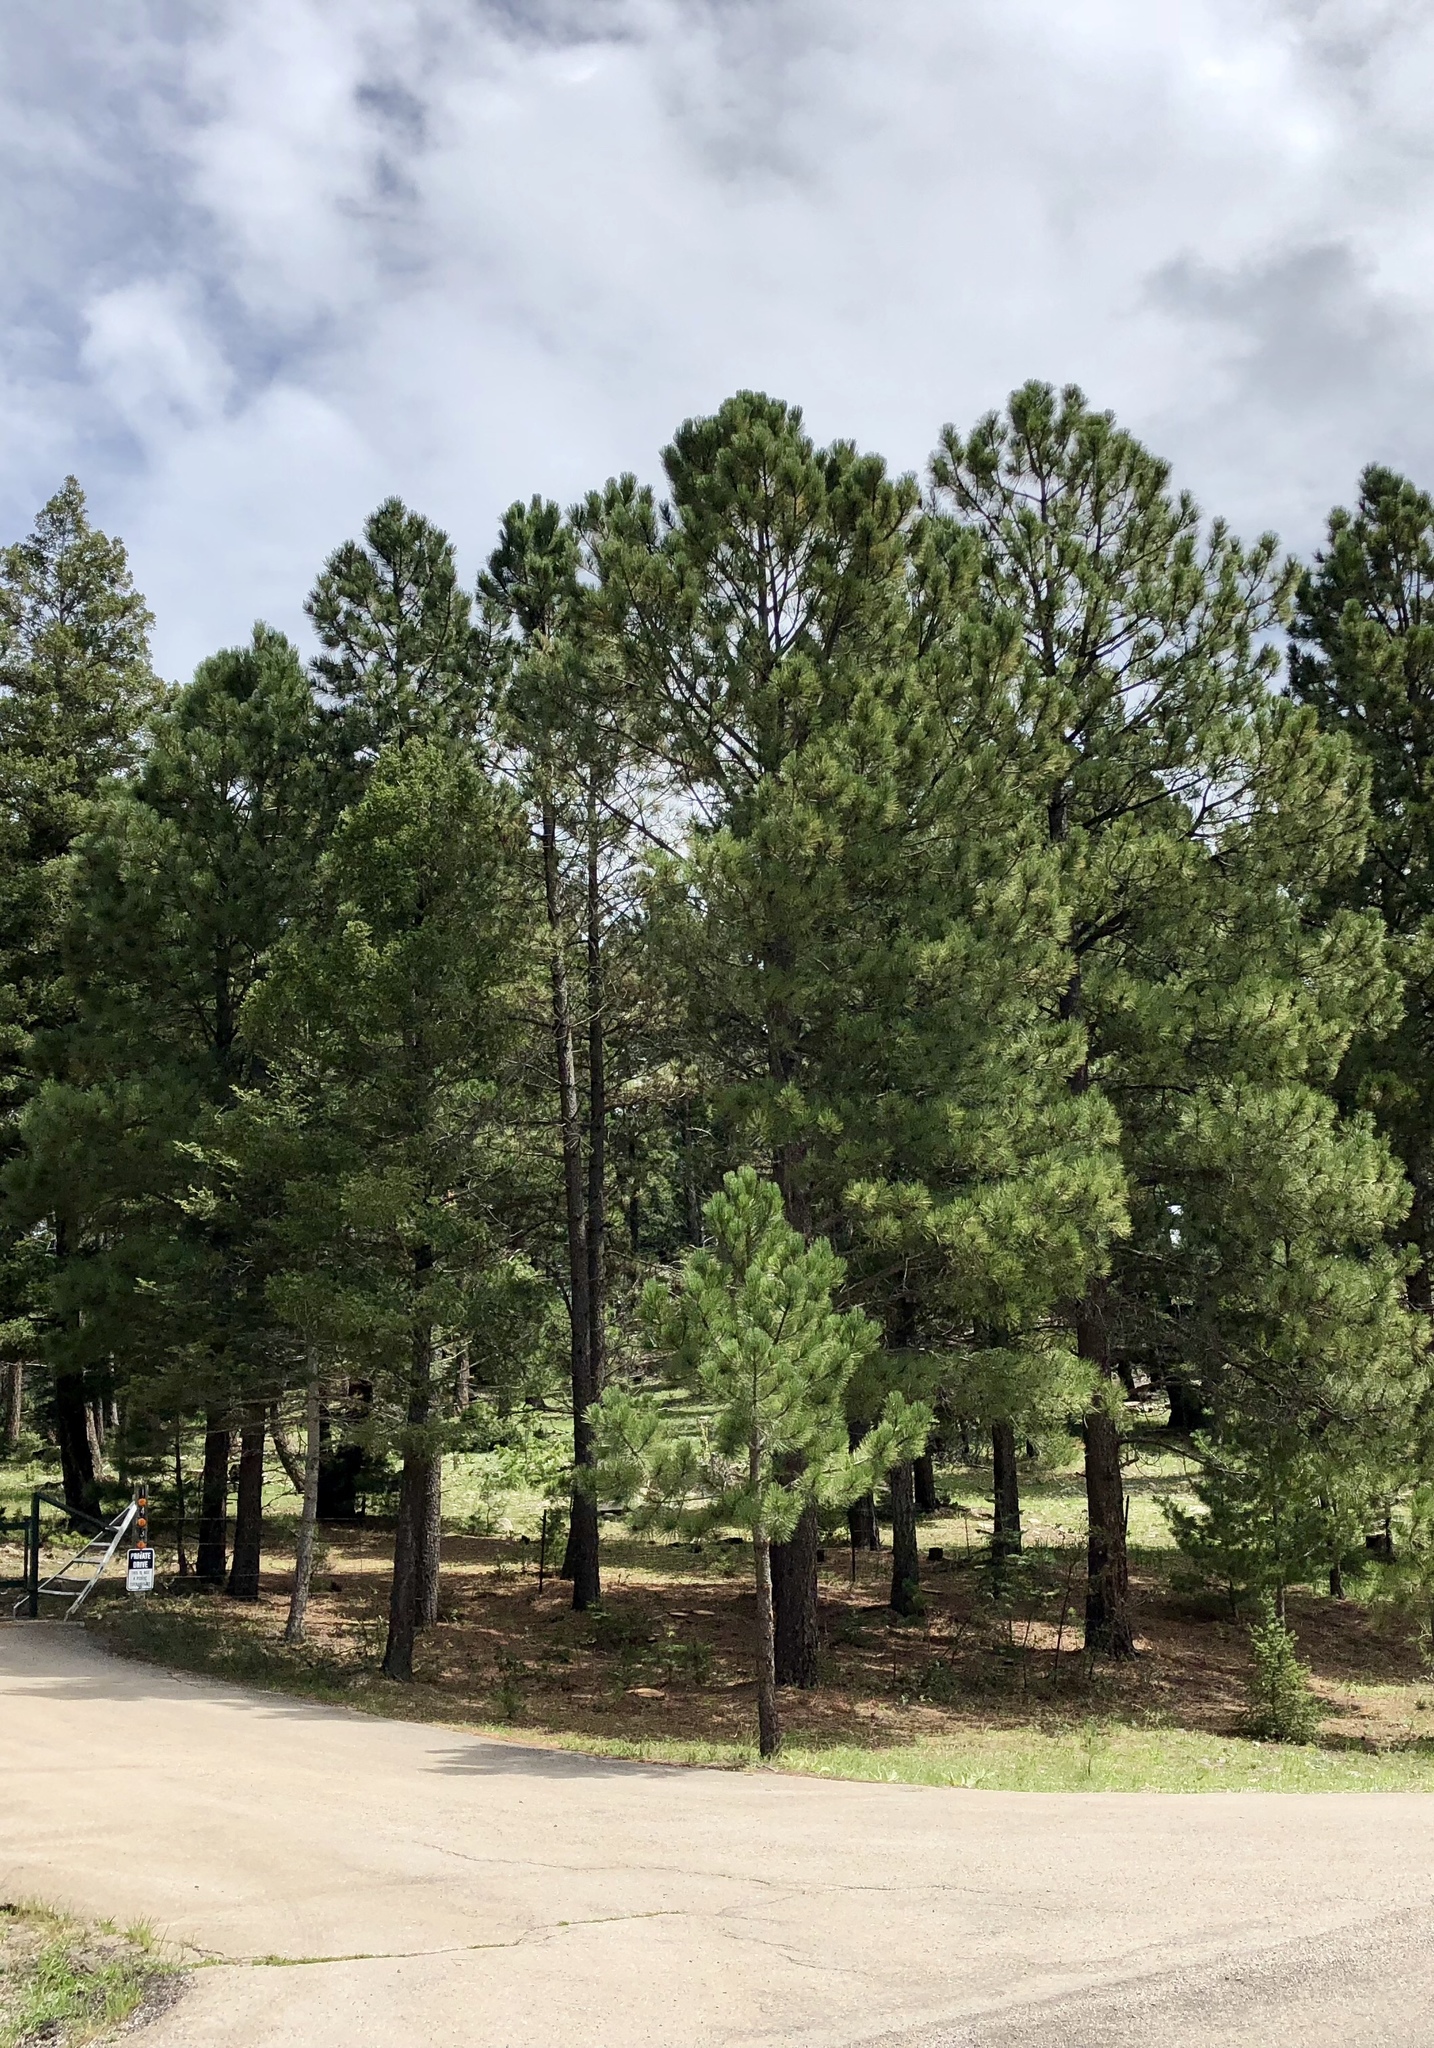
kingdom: Plantae
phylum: Tracheophyta
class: Pinopsida
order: Pinales
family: Pinaceae
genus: Pinus
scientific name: Pinus ponderosa
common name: Western yellow-pine
